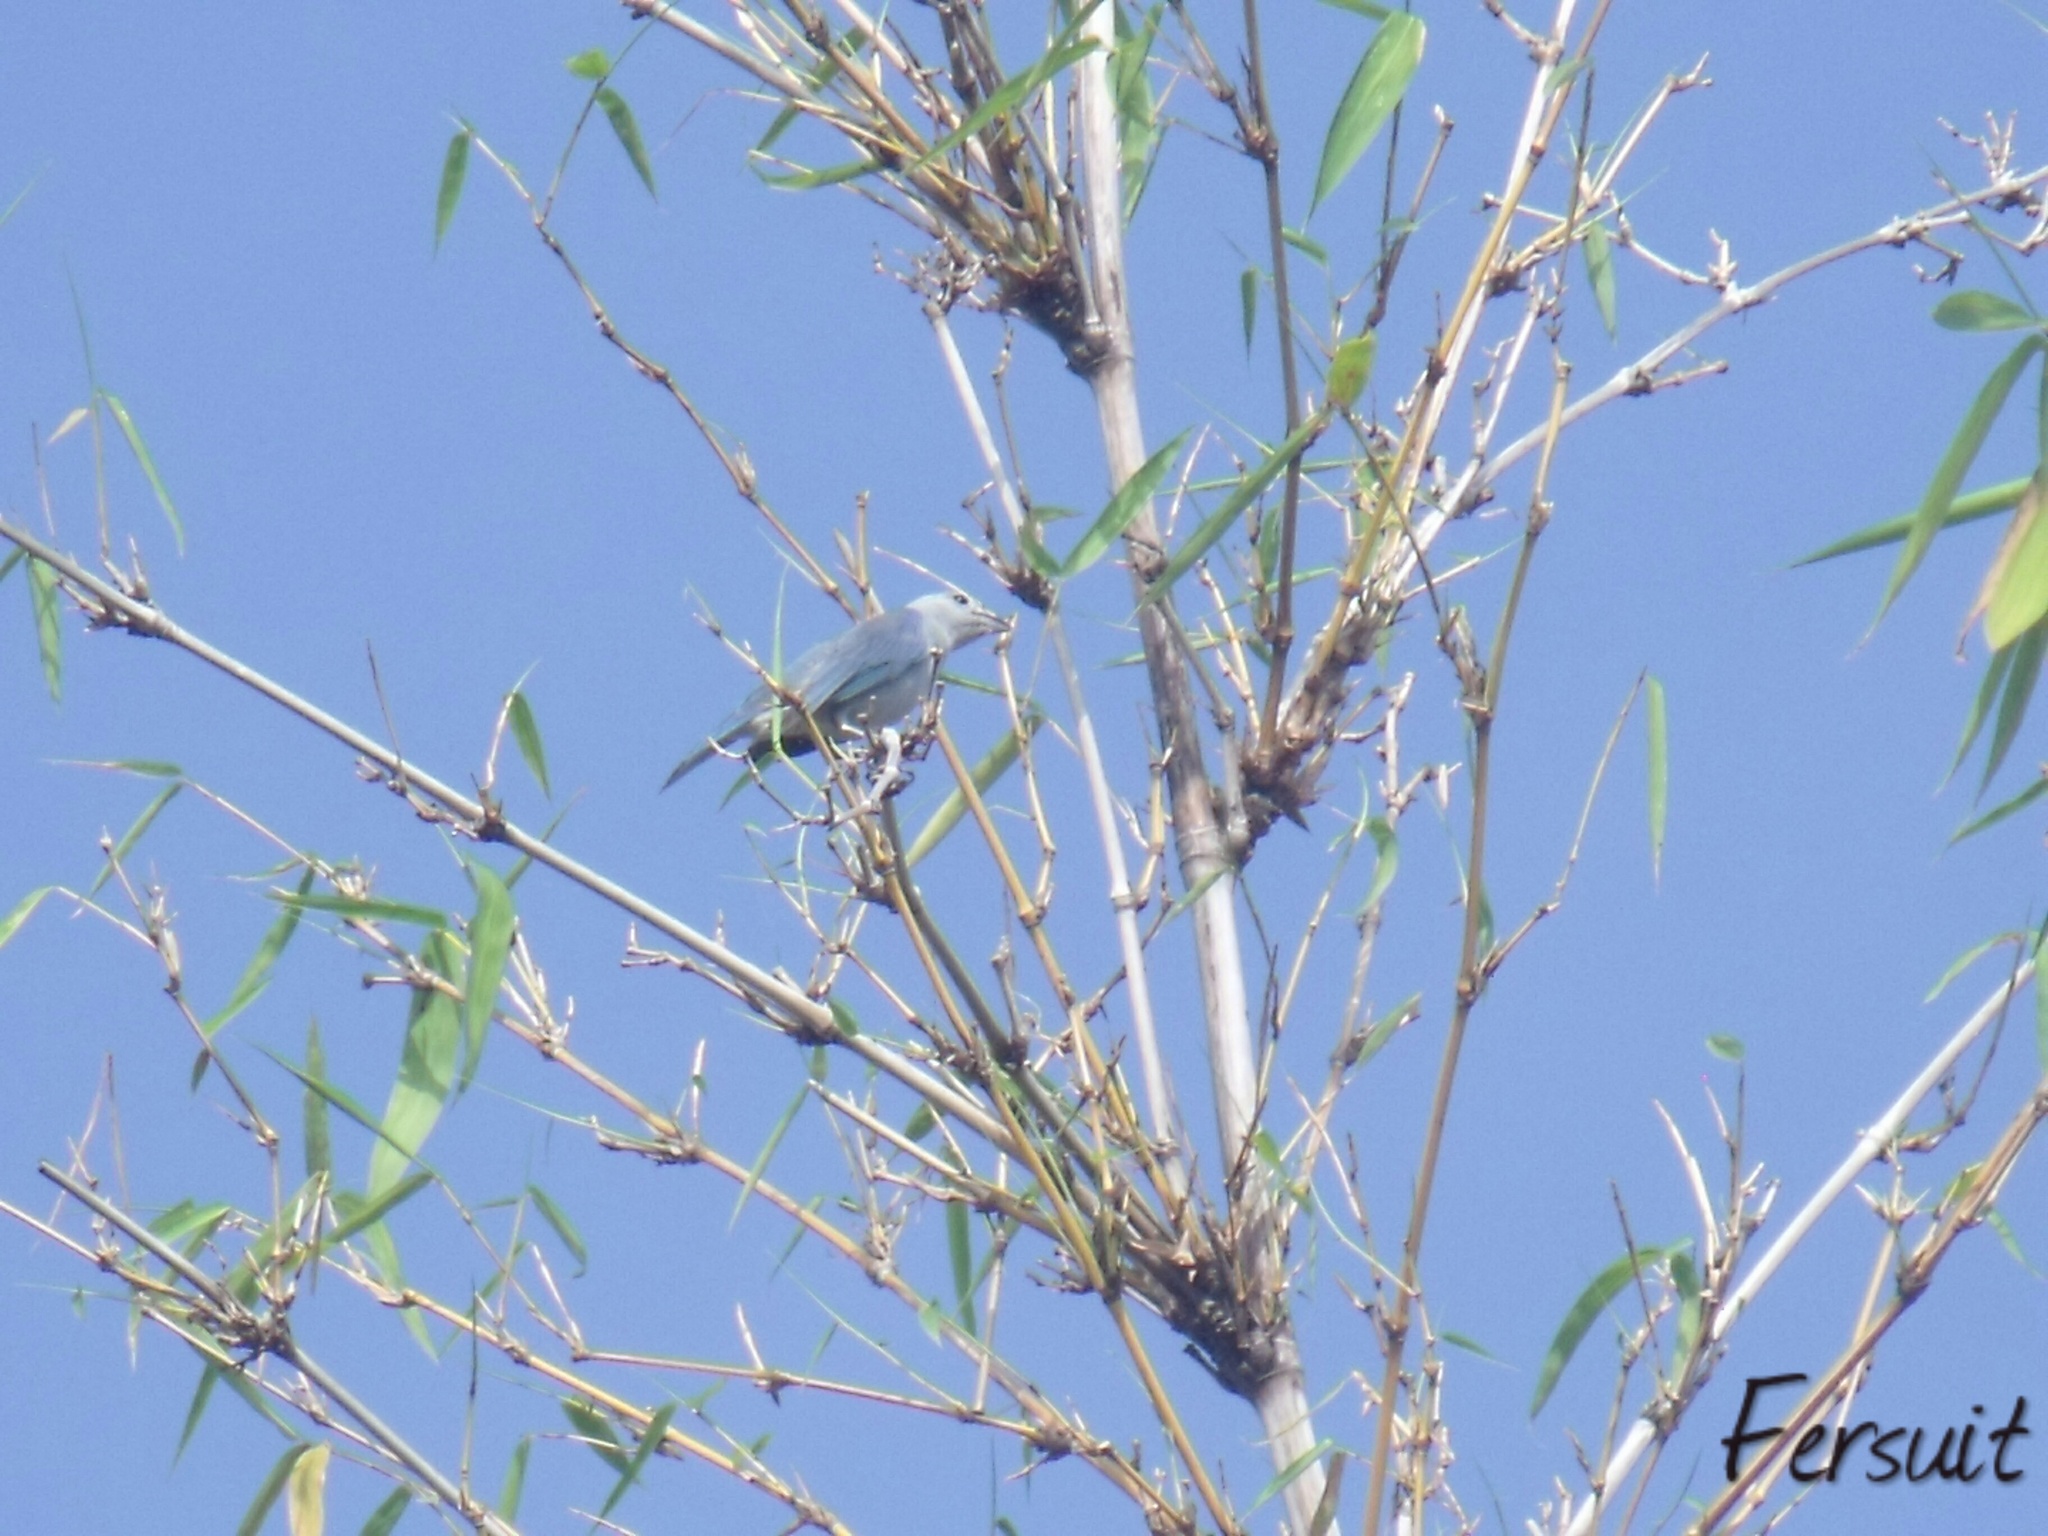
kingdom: Animalia
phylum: Chordata
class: Aves
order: Passeriformes
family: Thraupidae
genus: Thraupis
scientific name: Thraupis episcopus
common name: Blue-grey tanager
